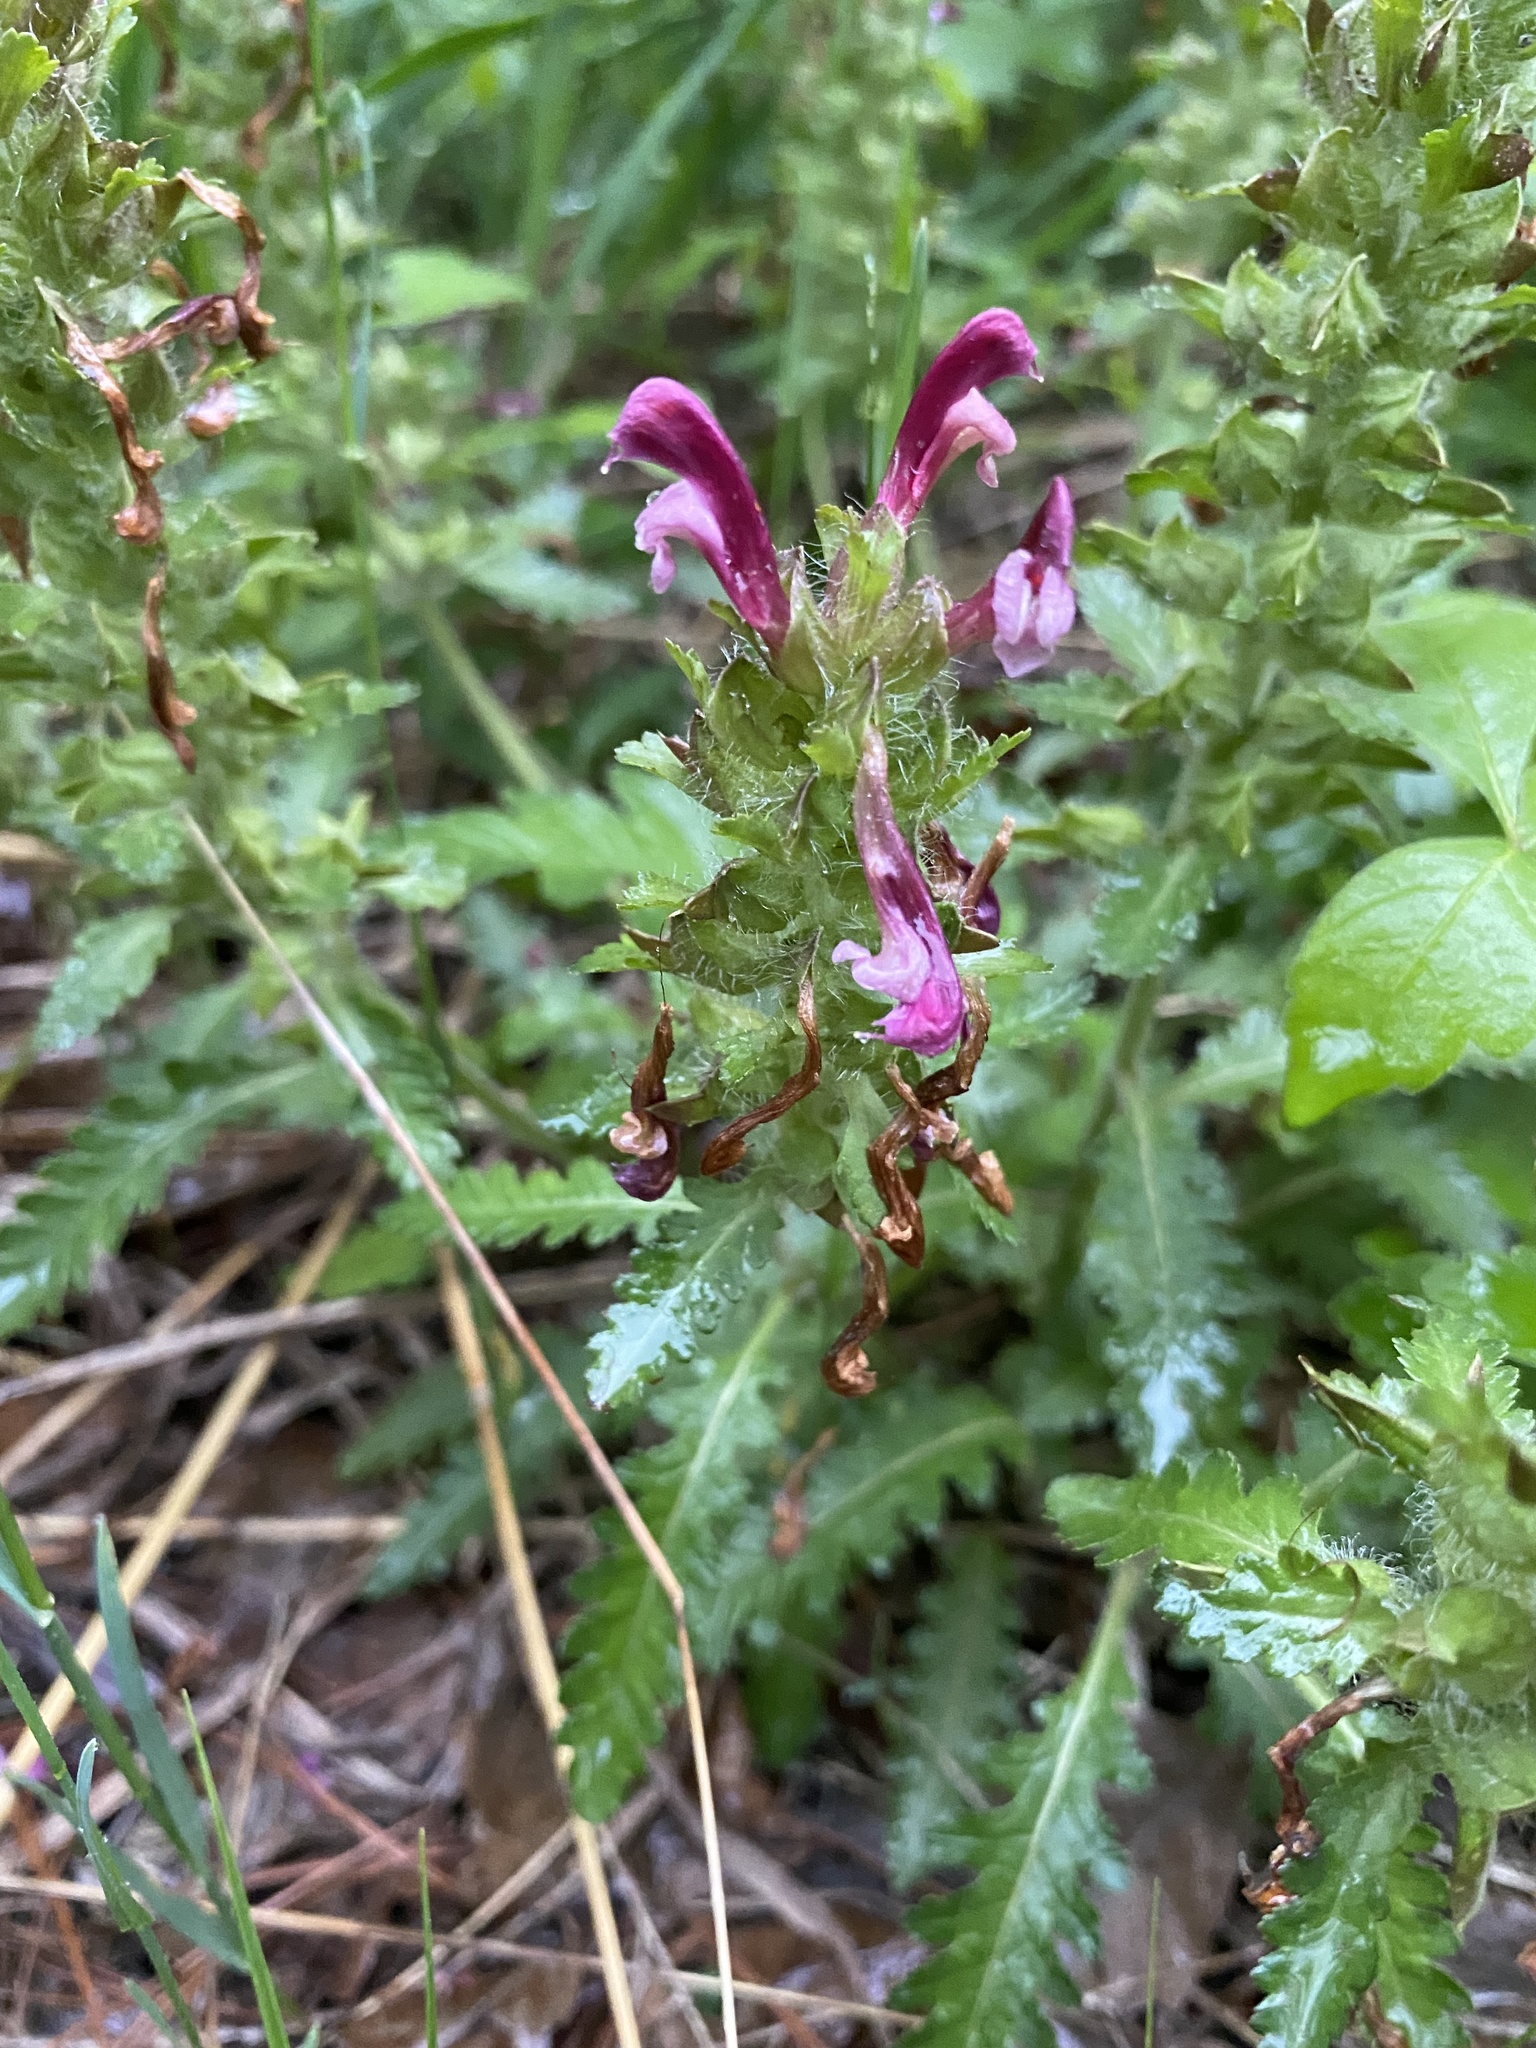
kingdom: Plantae
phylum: Tracheophyta
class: Magnoliopsida
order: Lamiales
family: Orobanchaceae
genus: Pedicularis
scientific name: Pedicularis canadensis
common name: Early lousewort
